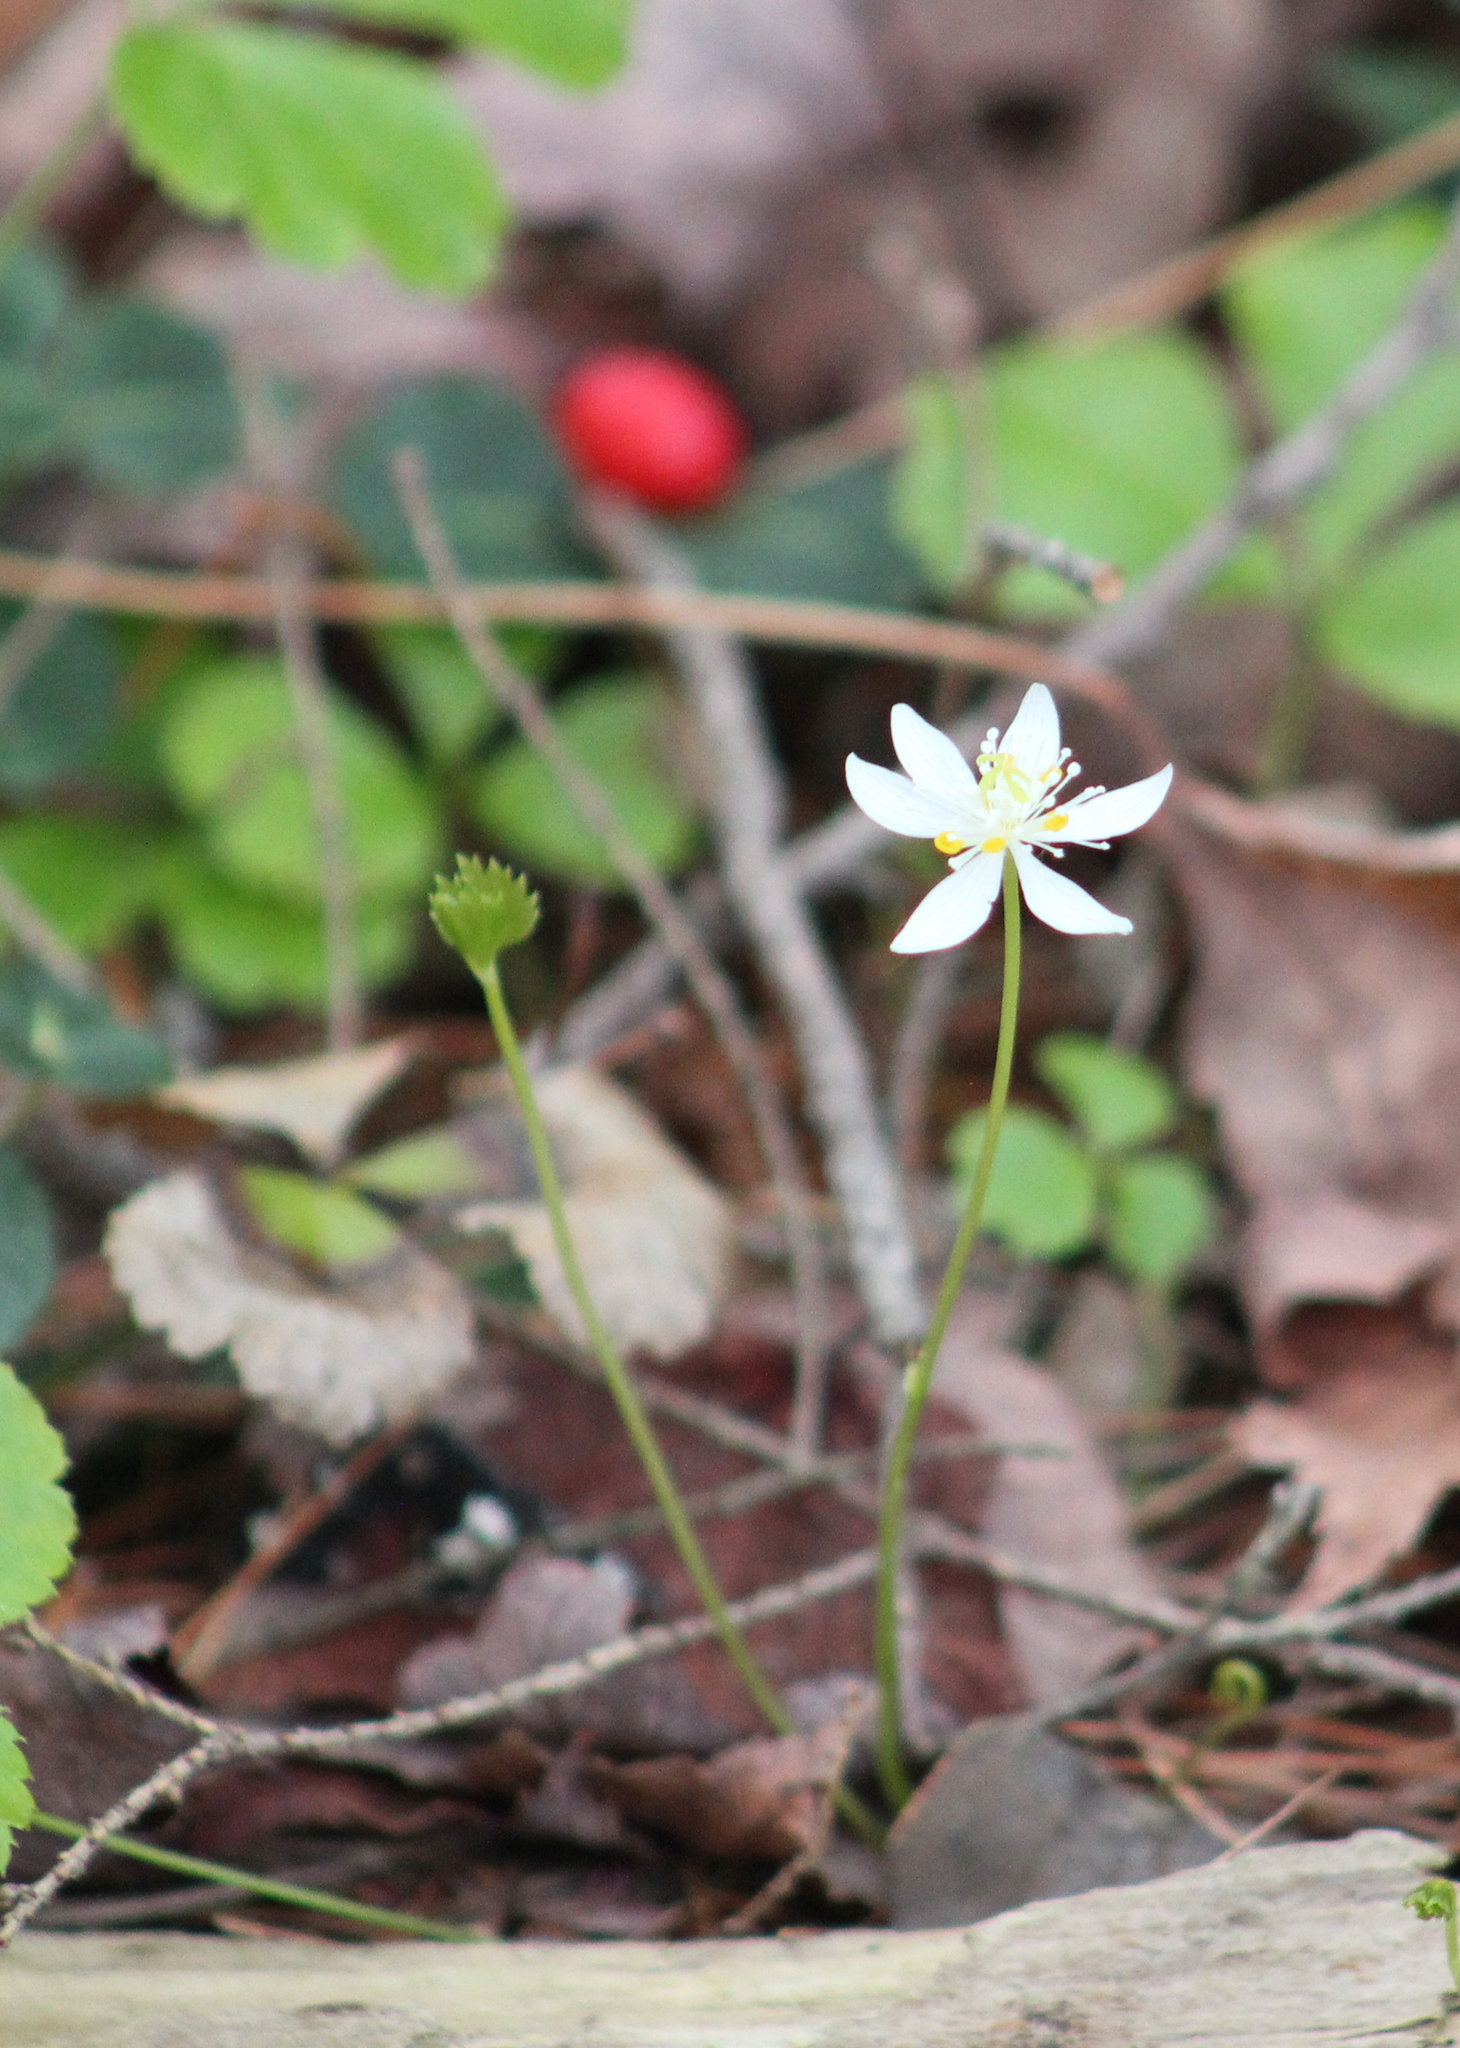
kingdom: Plantae
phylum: Tracheophyta
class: Magnoliopsida
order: Ranunculales
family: Ranunculaceae
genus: Coptis
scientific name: Coptis trifolia
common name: Canker-root
